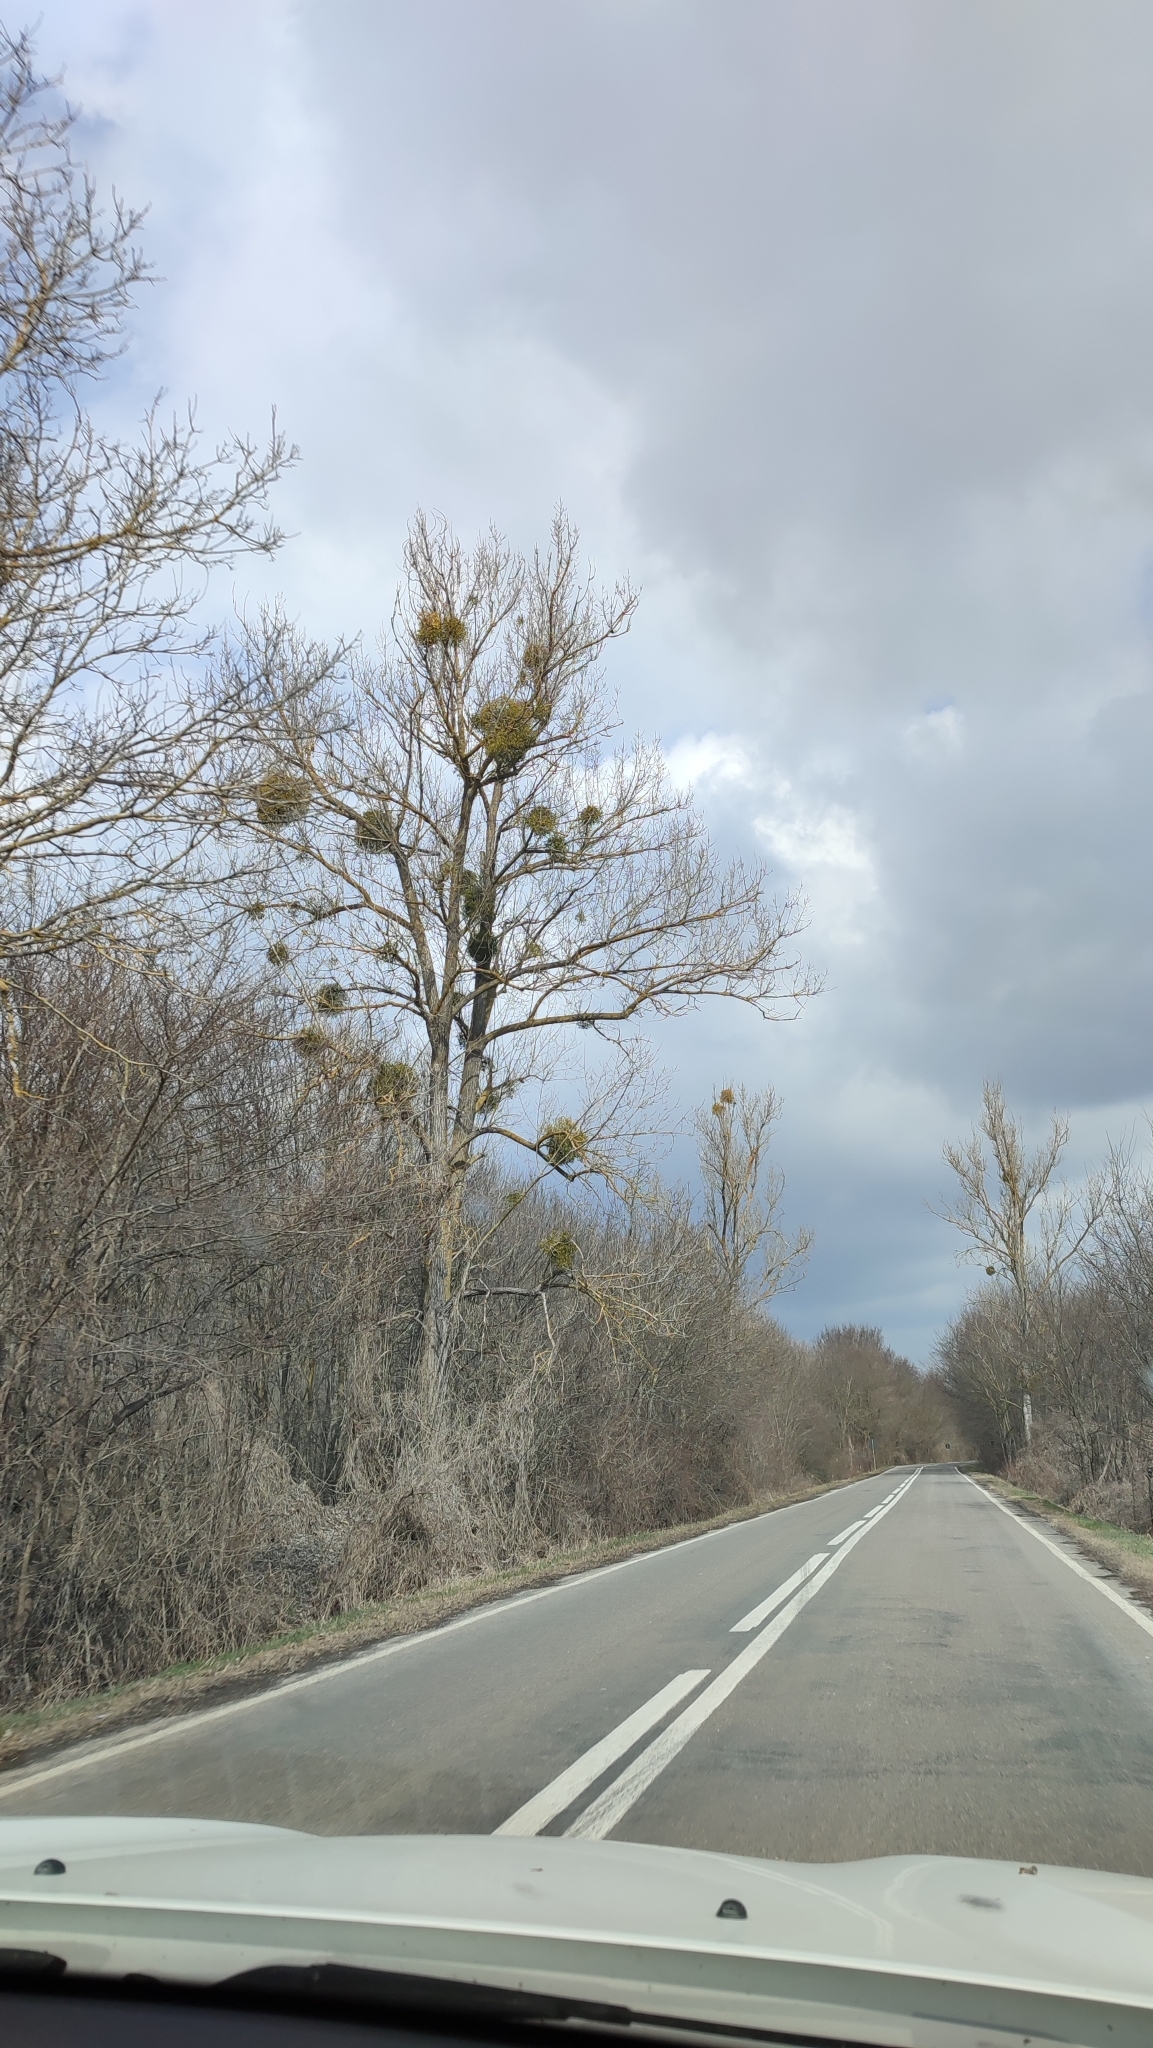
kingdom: Plantae
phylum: Tracheophyta
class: Magnoliopsida
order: Santalales
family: Viscaceae
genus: Viscum
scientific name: Viscum album
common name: Mistletoe
